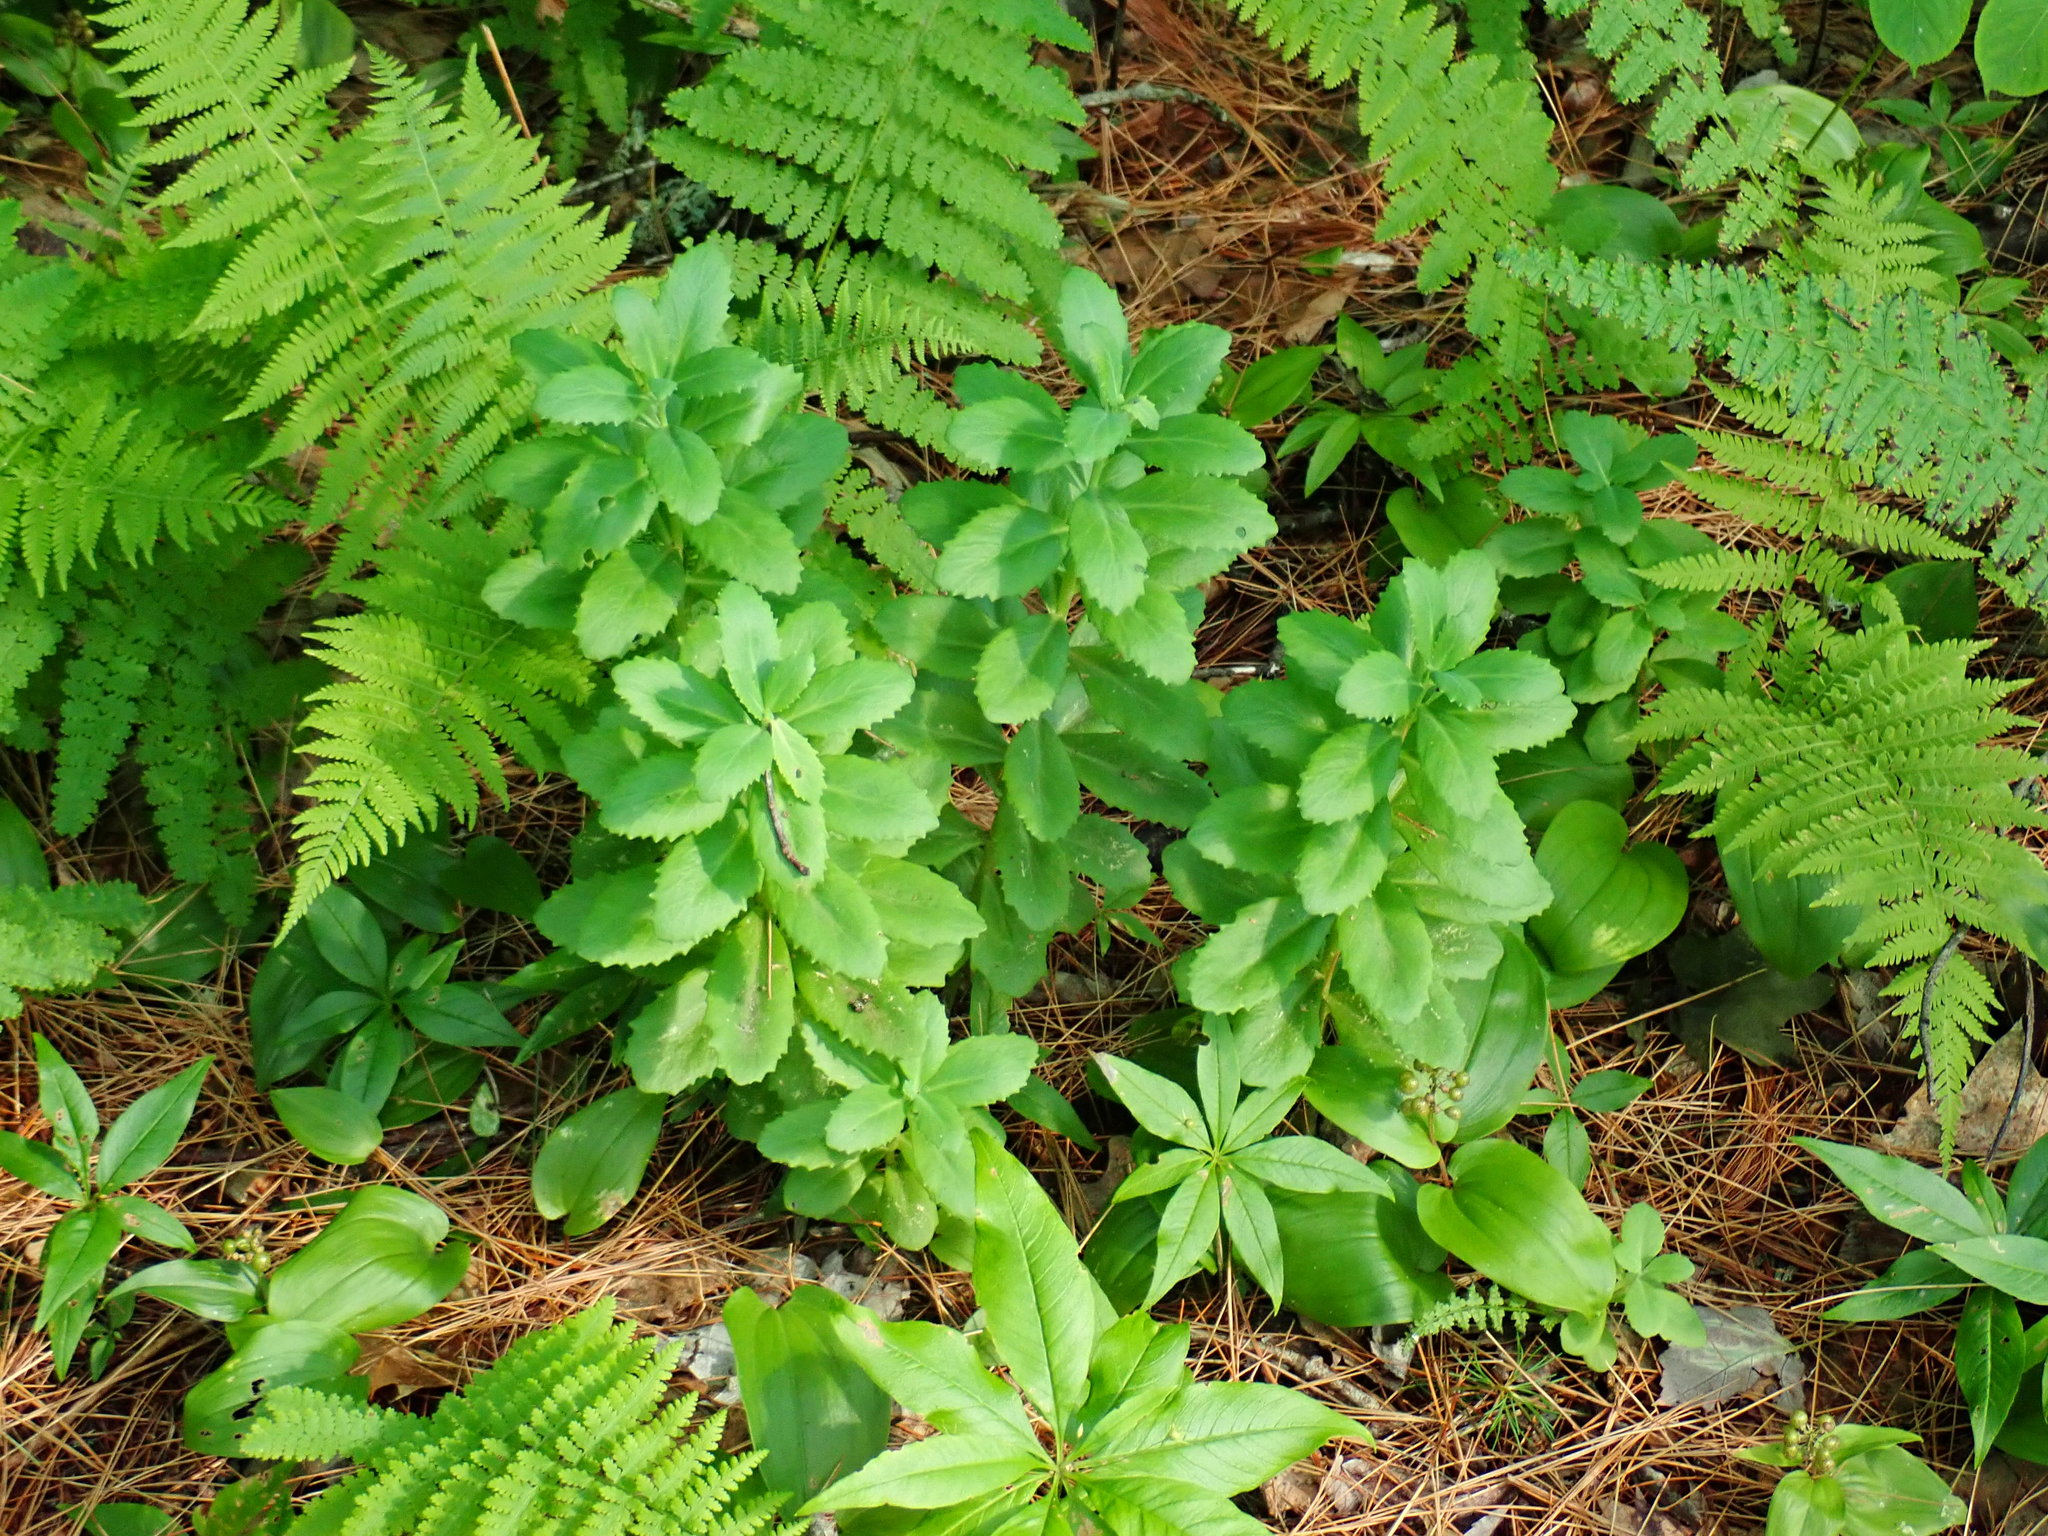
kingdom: Plantae
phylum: Tracheophyta
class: Magnoliopsida
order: Saxifragales
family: Crassulaceae
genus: Hylotelephium
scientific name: Hylotelephium telephium
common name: Live-forever
